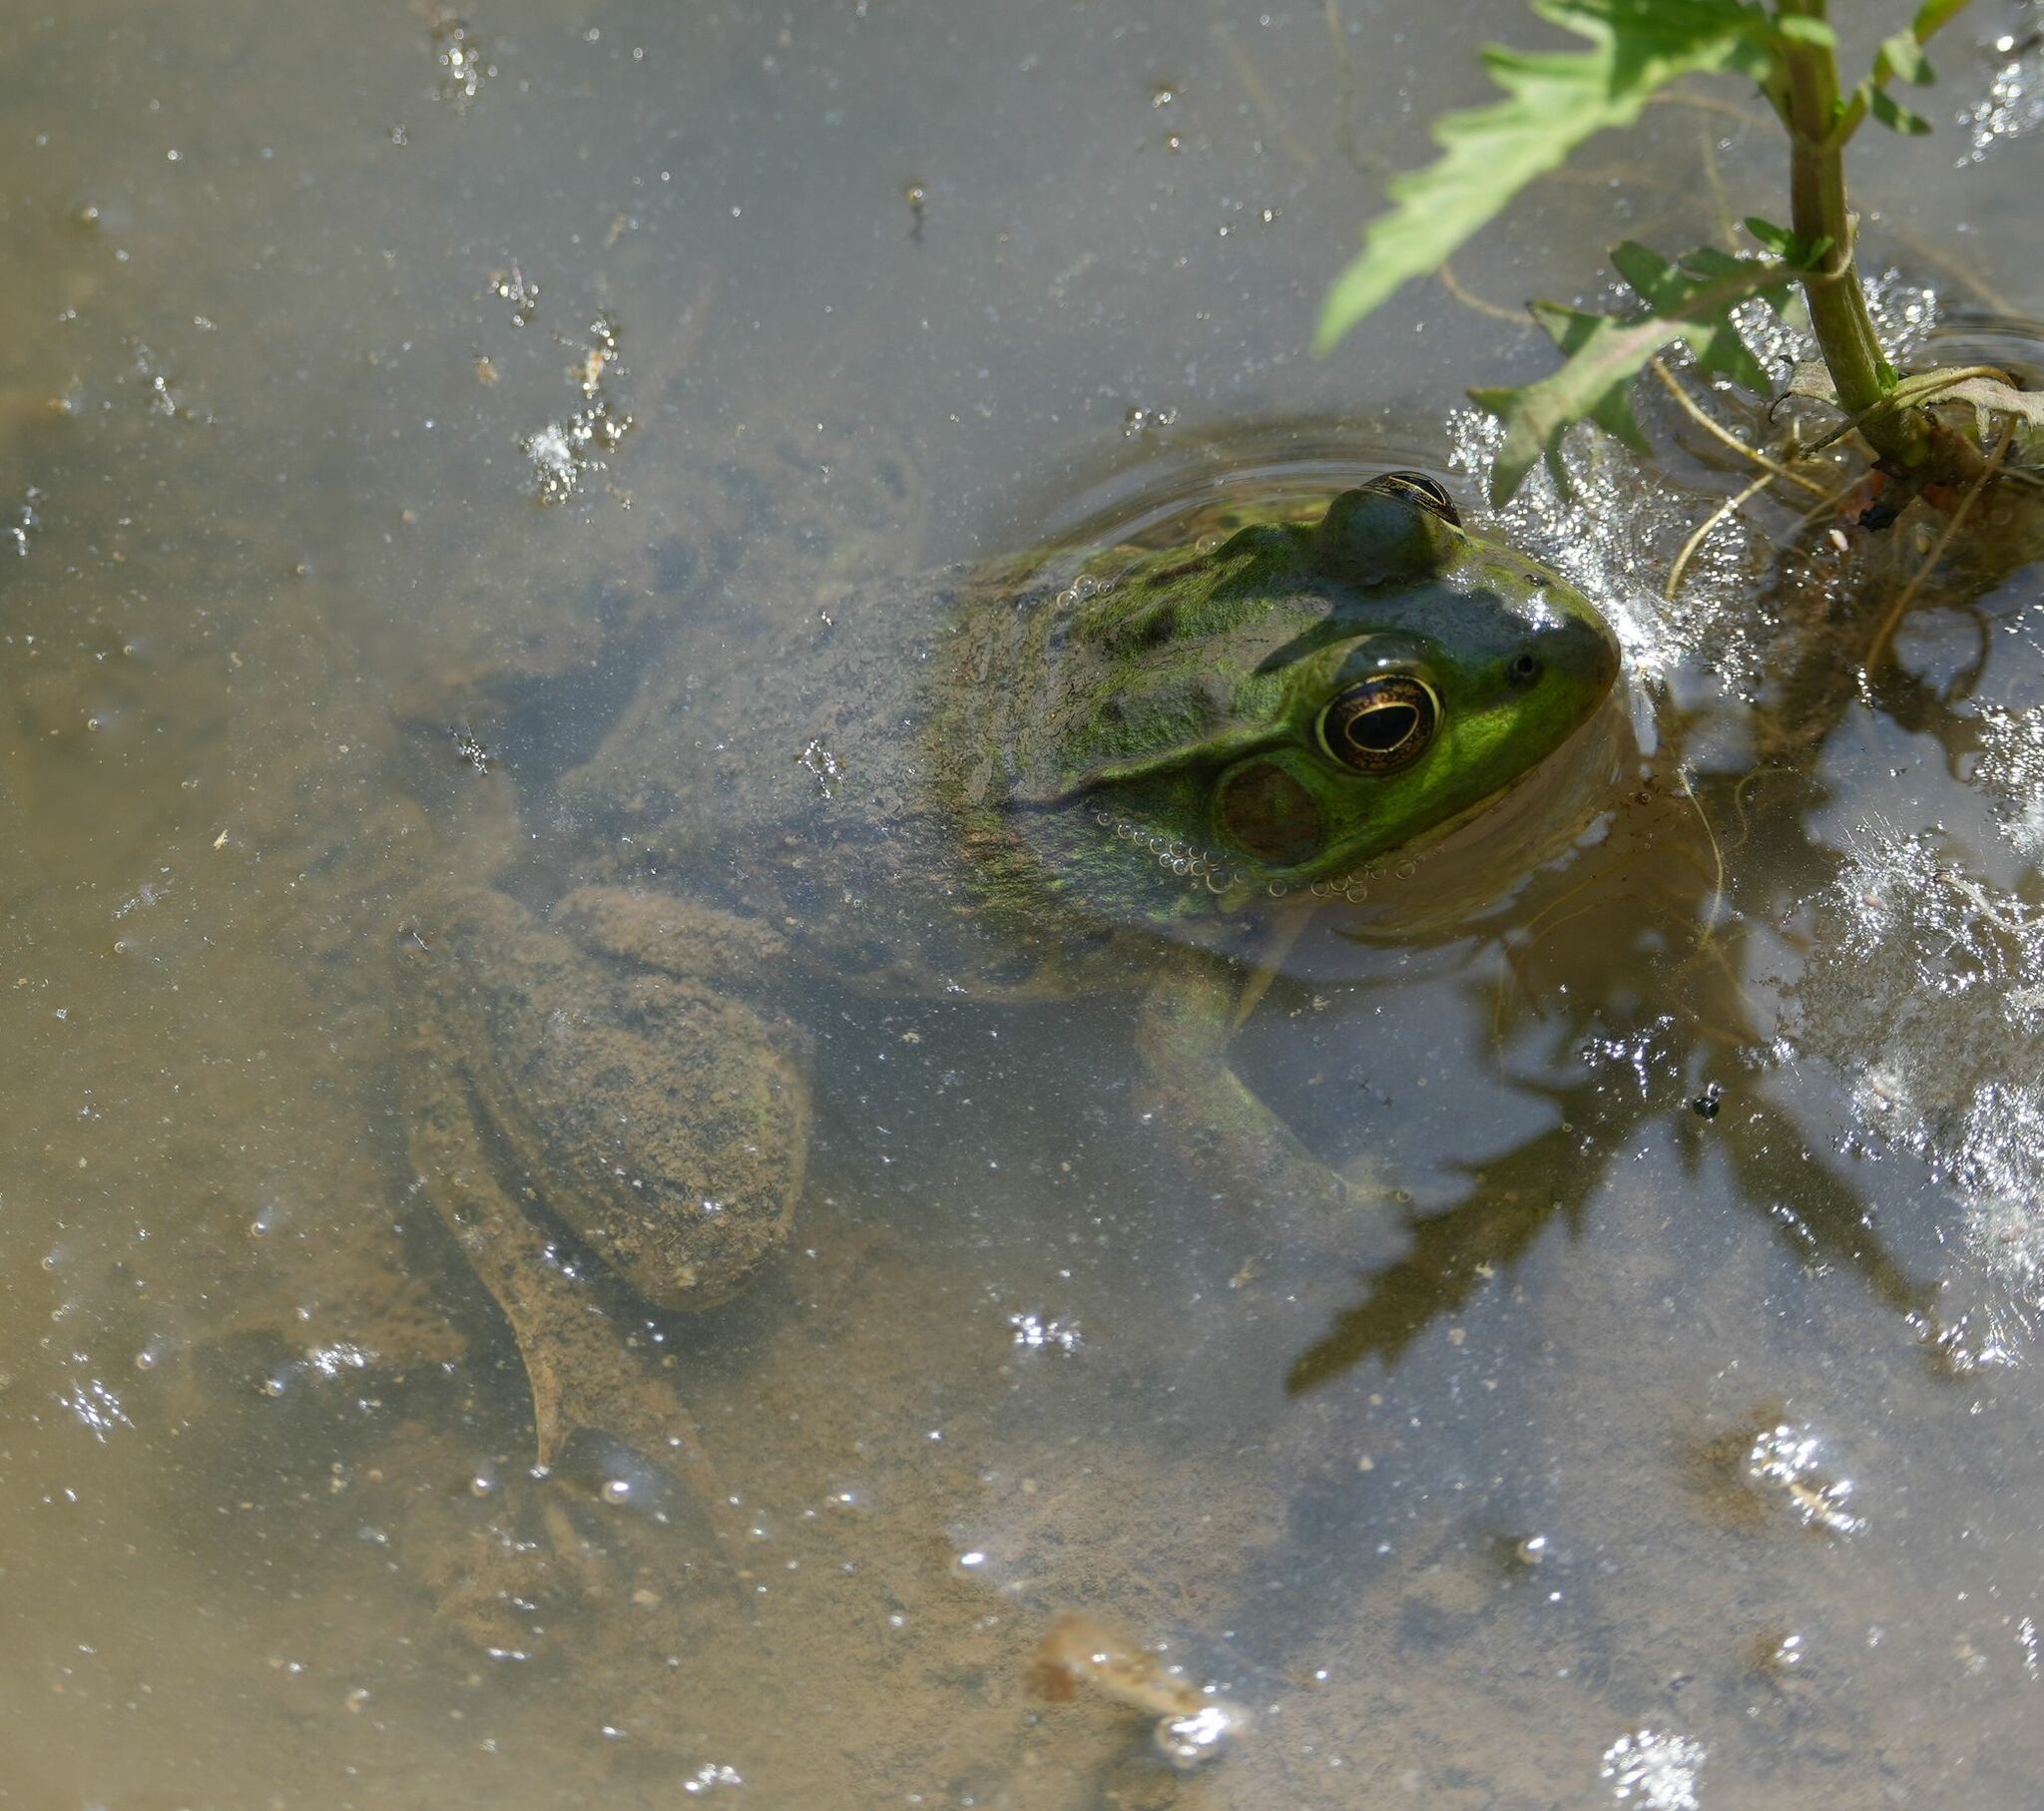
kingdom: Animalia
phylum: Chordata
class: Amphibia
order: Anura
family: Ranidae
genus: Lithobates
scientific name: Lithobates clamitans
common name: Green frog
